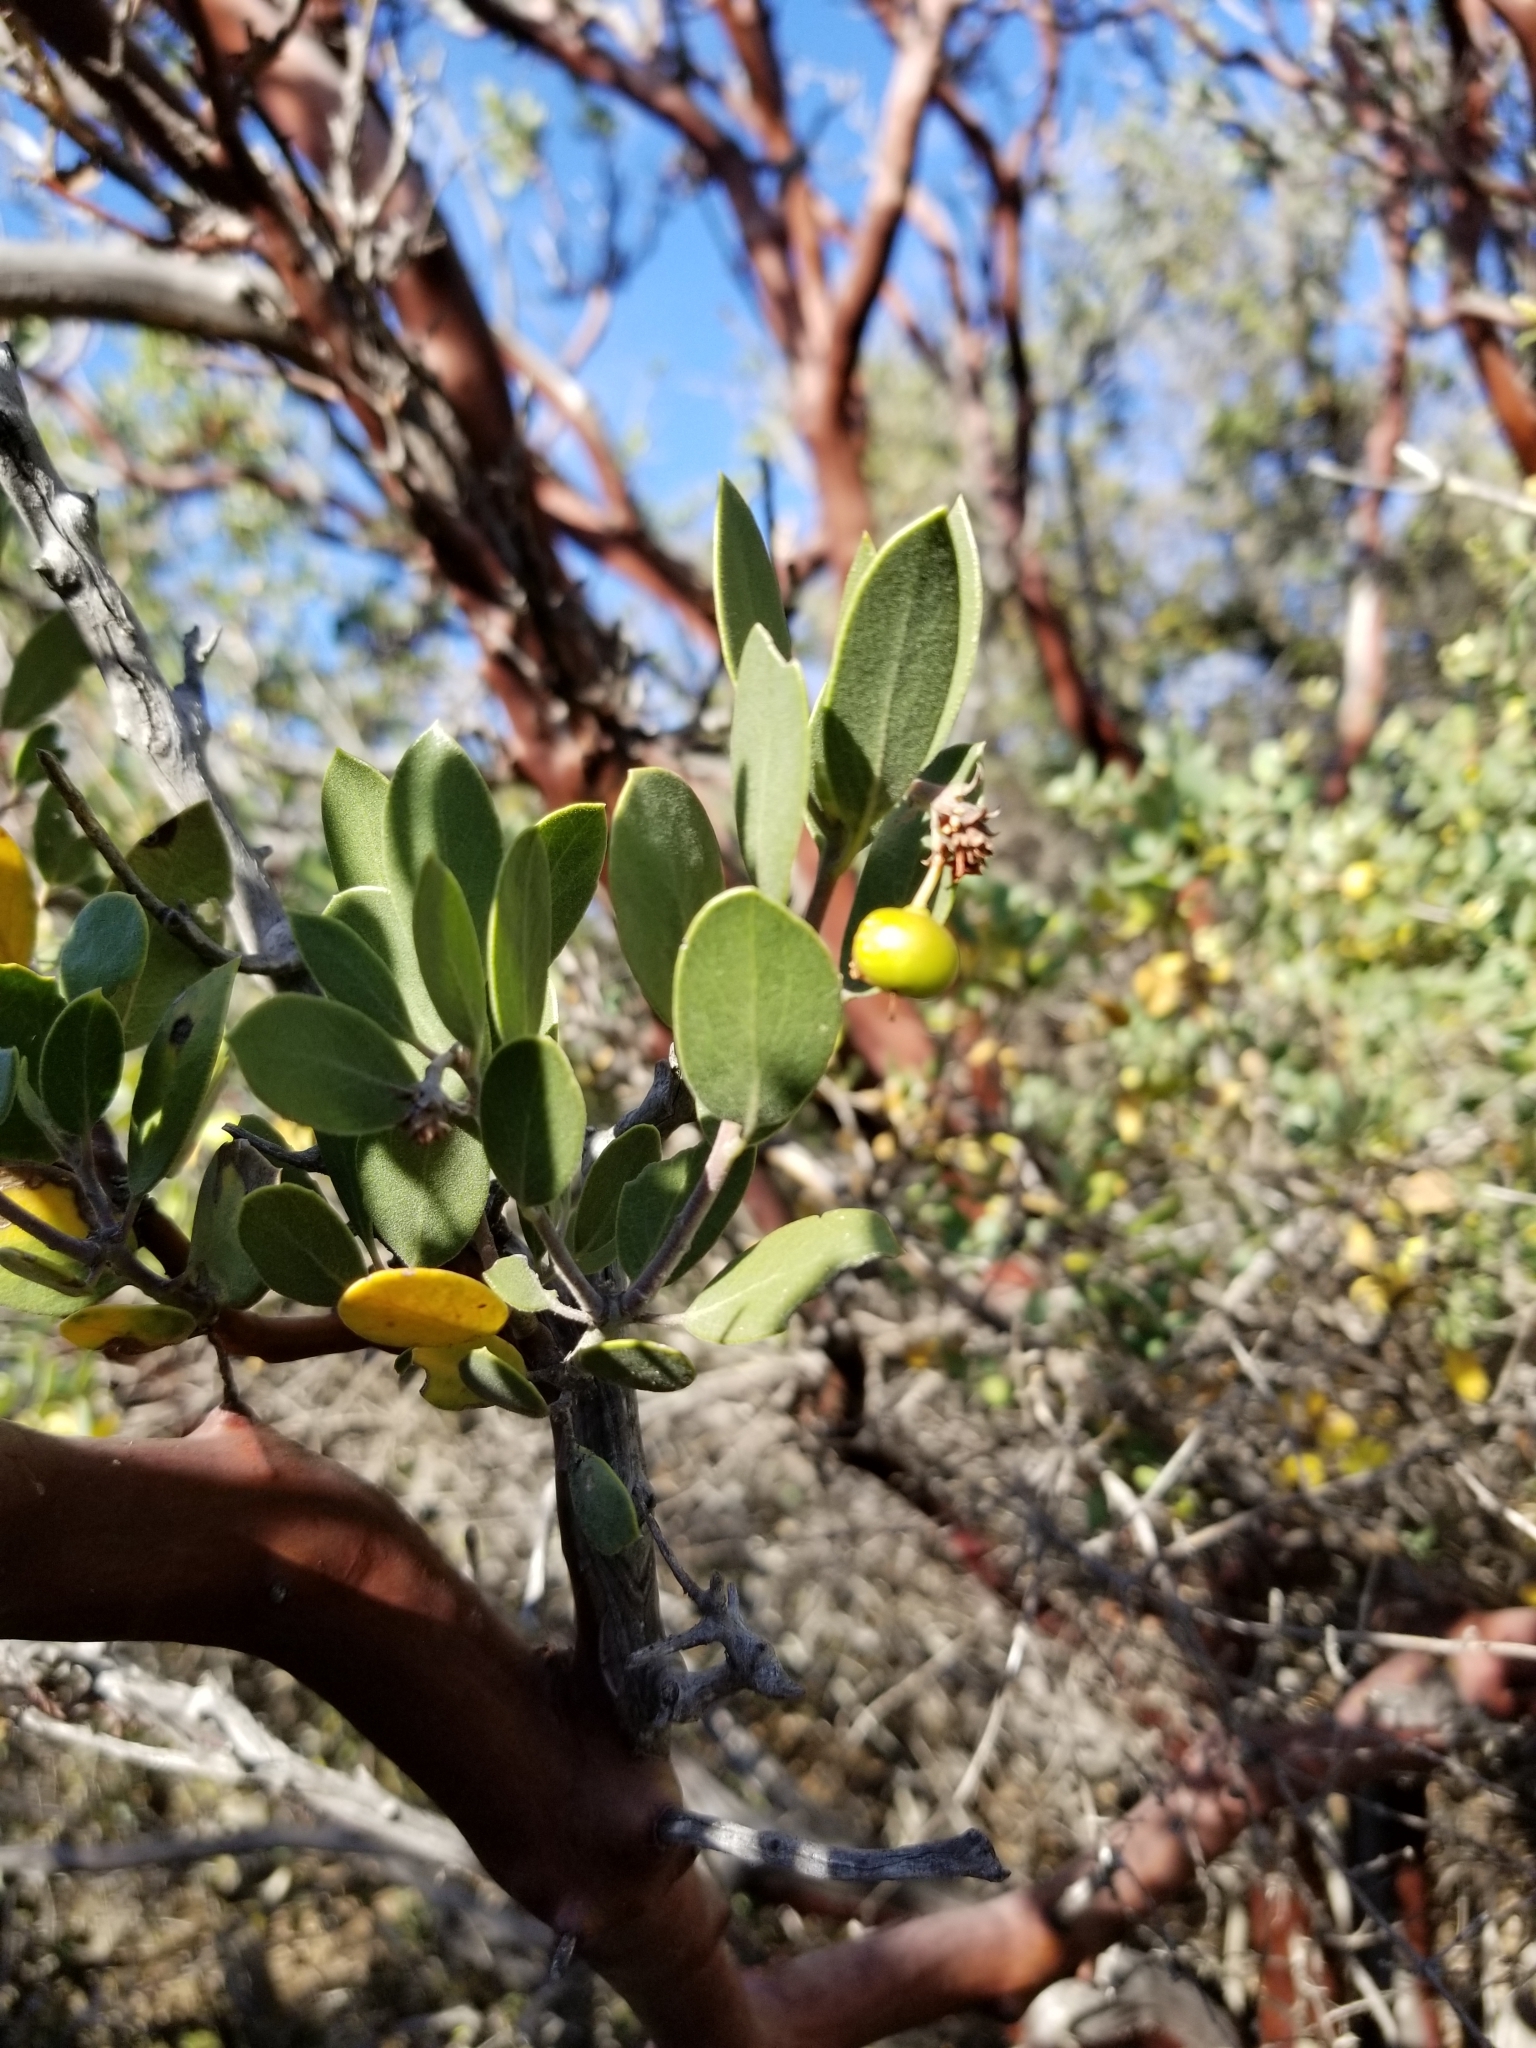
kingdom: Plantae
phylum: Tracheophyta
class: Magnoliopsida
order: Ericales
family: Ericaceae
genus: Arctostaphylos
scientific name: Arctostaphylos pungens
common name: Mexican manzanita
